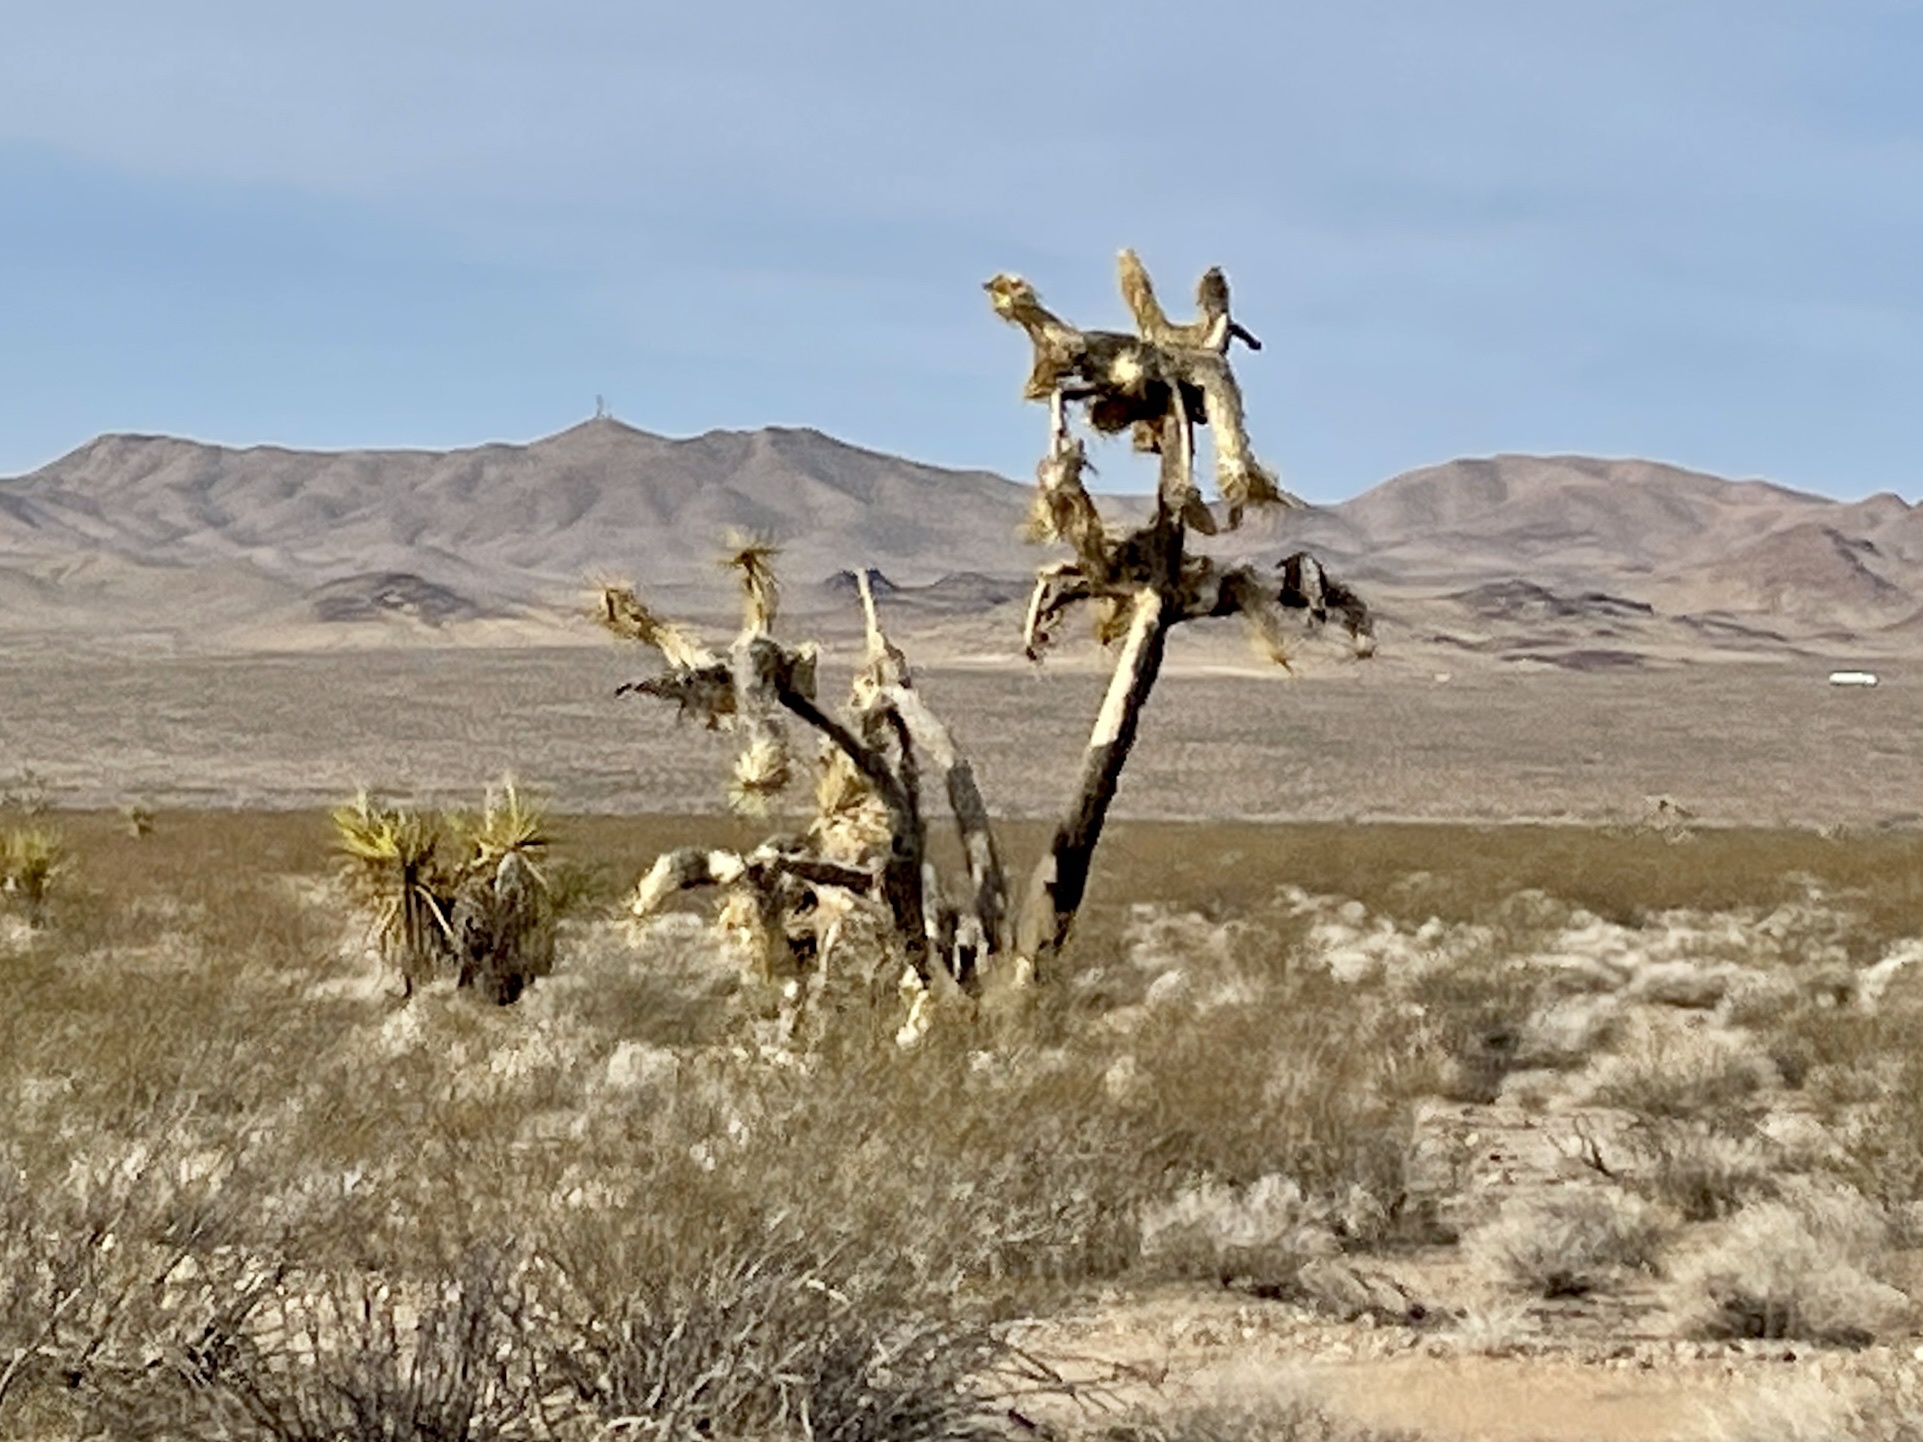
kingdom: Plantae
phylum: Tracheophyta
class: Liliopsida
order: Asparagales
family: Asparagaceae
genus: Yucca
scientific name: Yucca brevifolia
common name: Joshua tree
